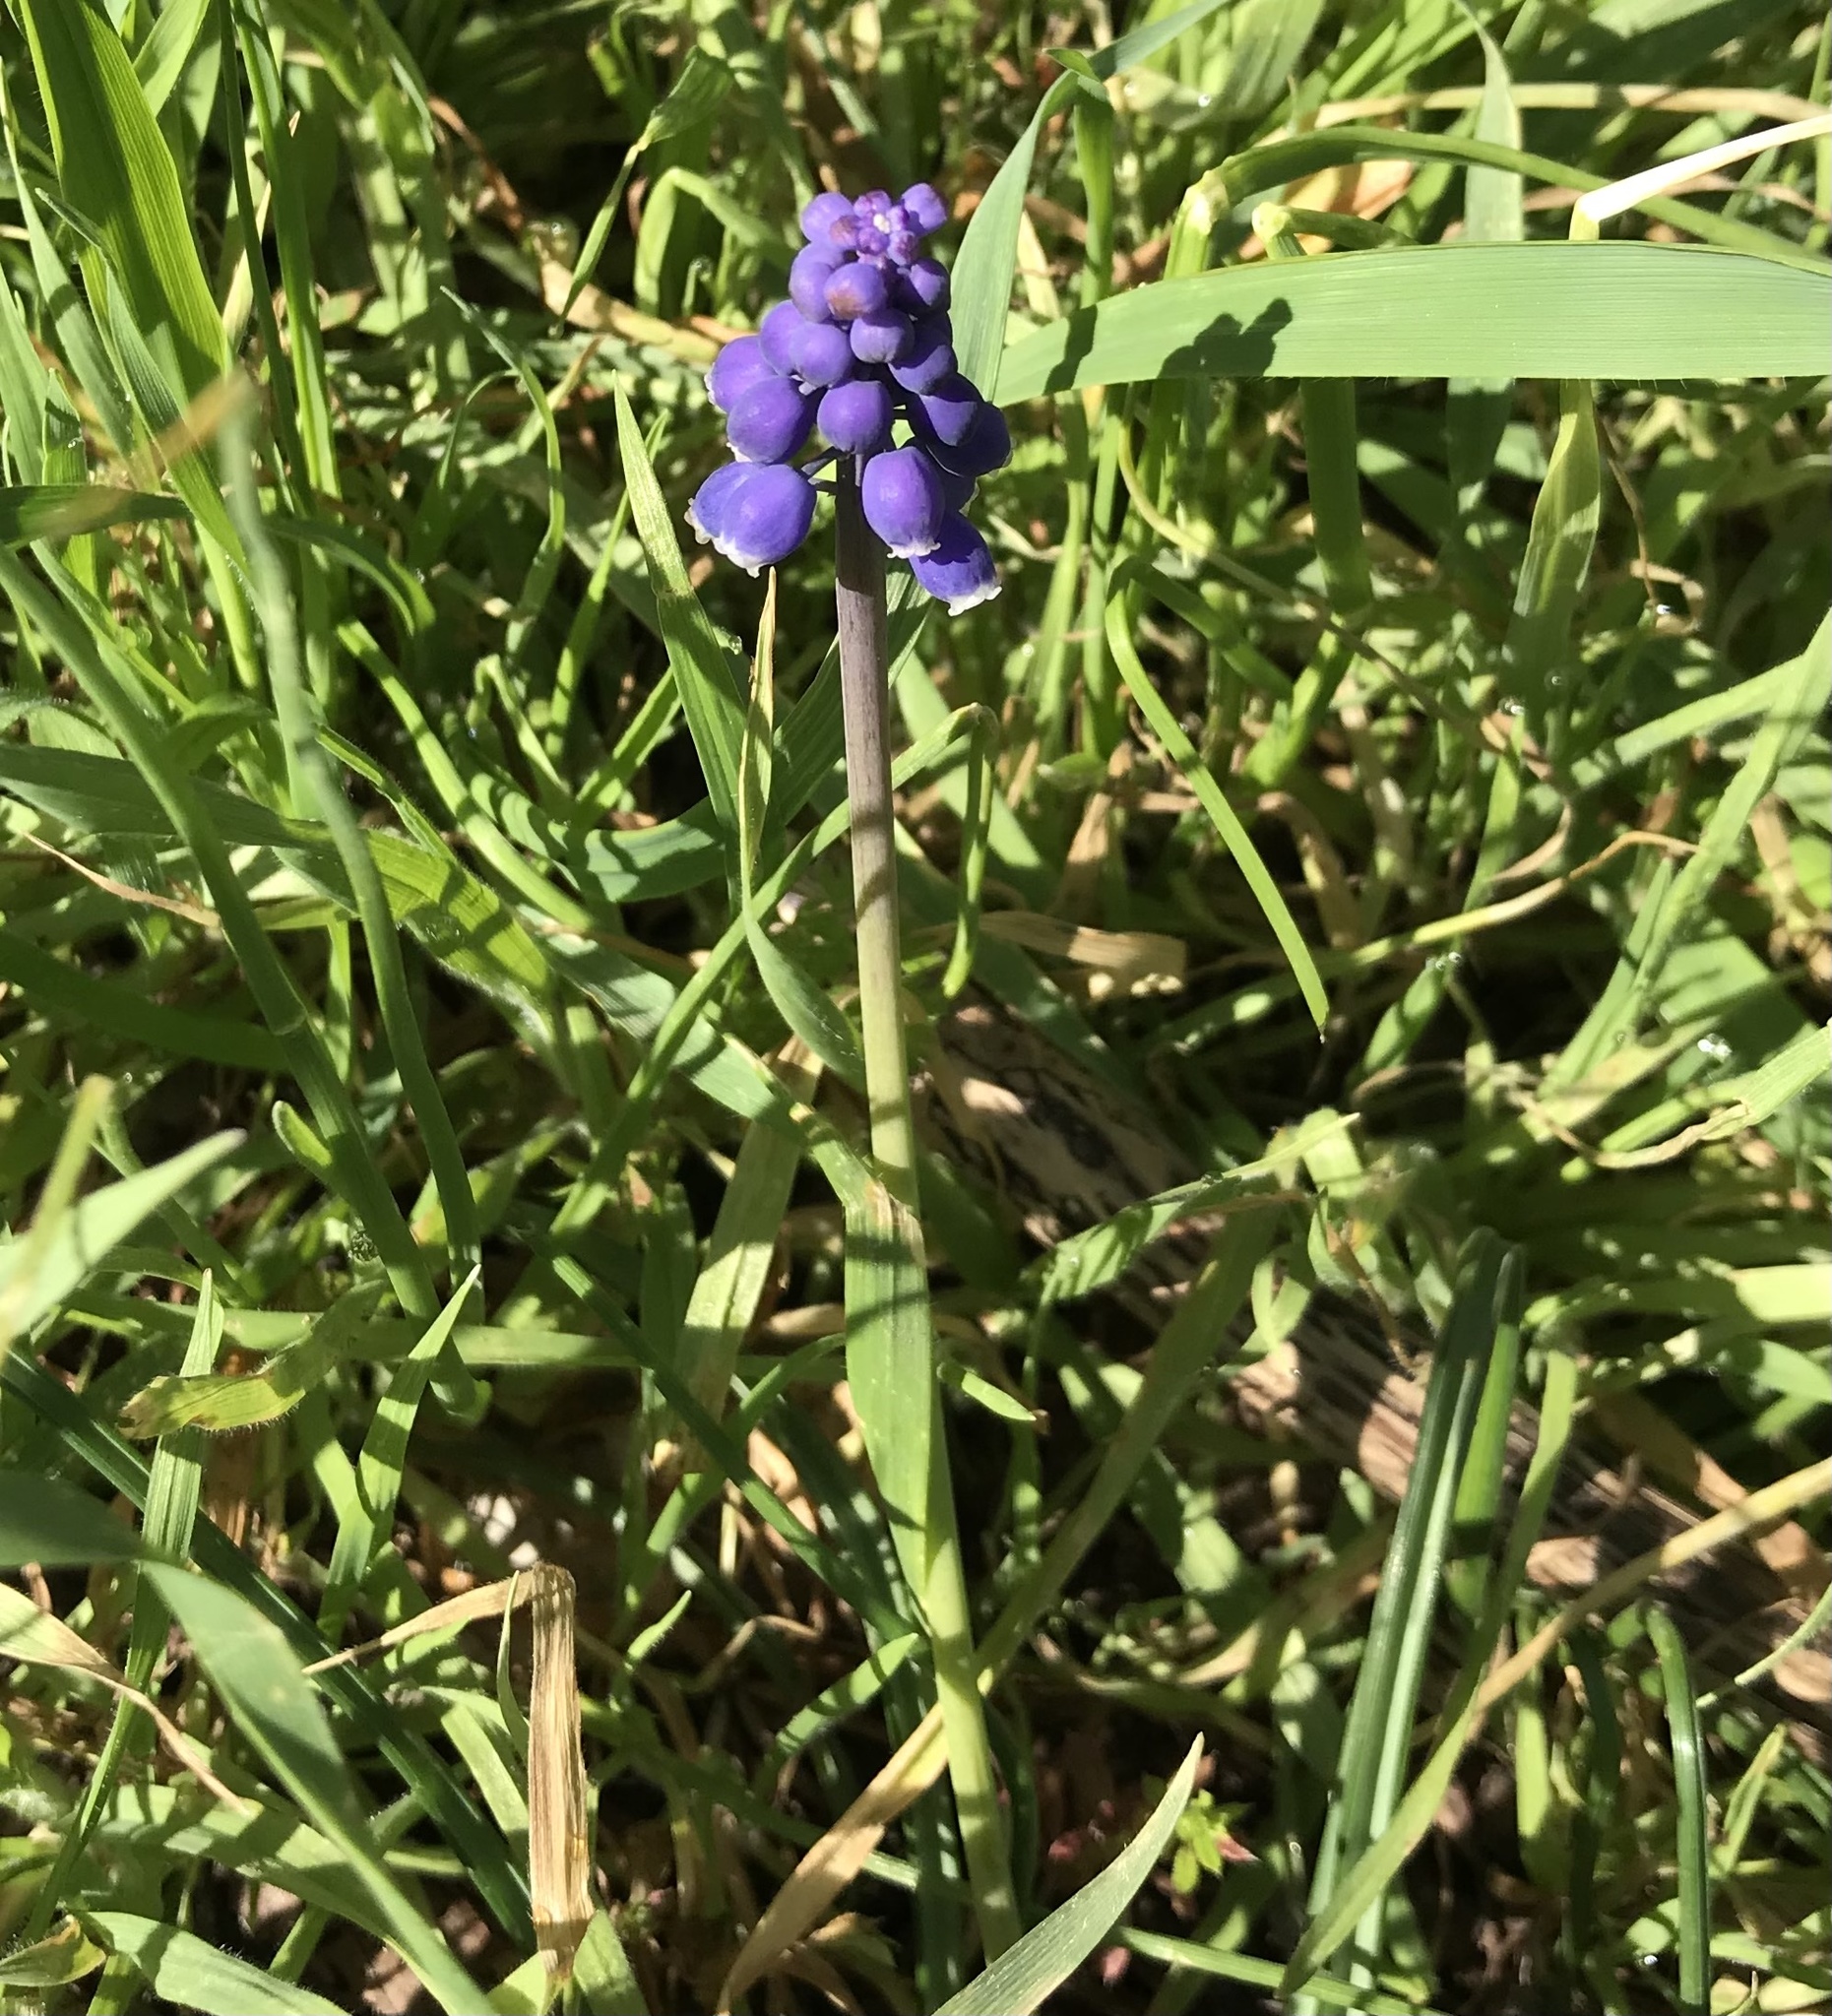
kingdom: Plantae
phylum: Tracheophyta
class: Liliopsida
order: Asparagales
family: Asparagaceae
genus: Muscari
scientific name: Muscari neglectum
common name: Grape-hyacinth
